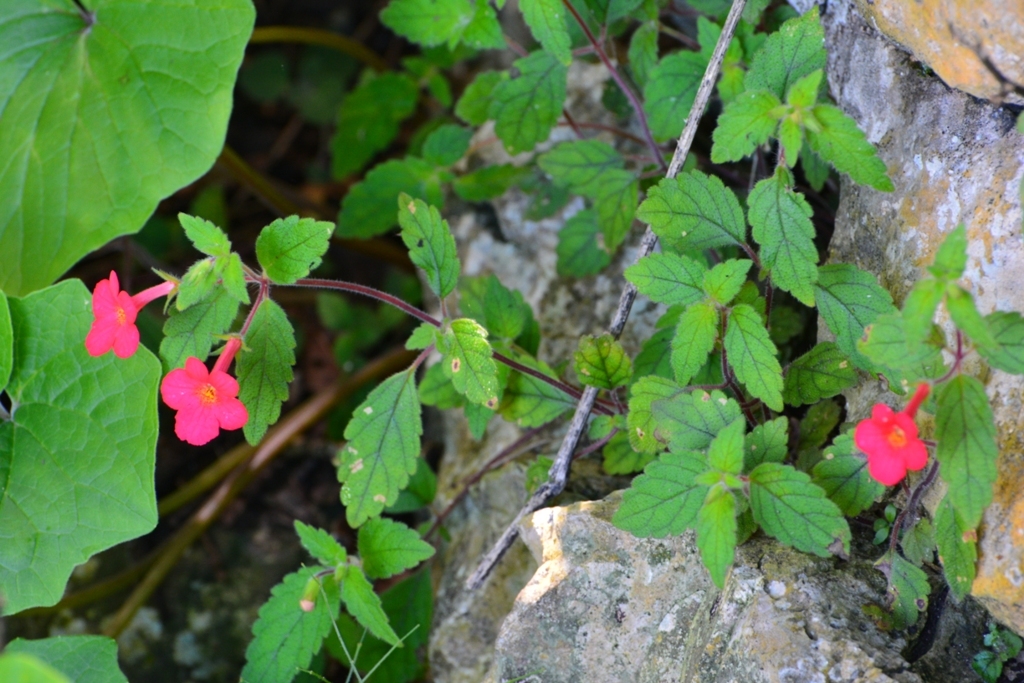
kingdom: Plantae
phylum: Tracheophyta
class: Magnoliopsida
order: Lamiales
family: Gesneriaceae
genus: Achimenes
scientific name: Achimenes erecta
